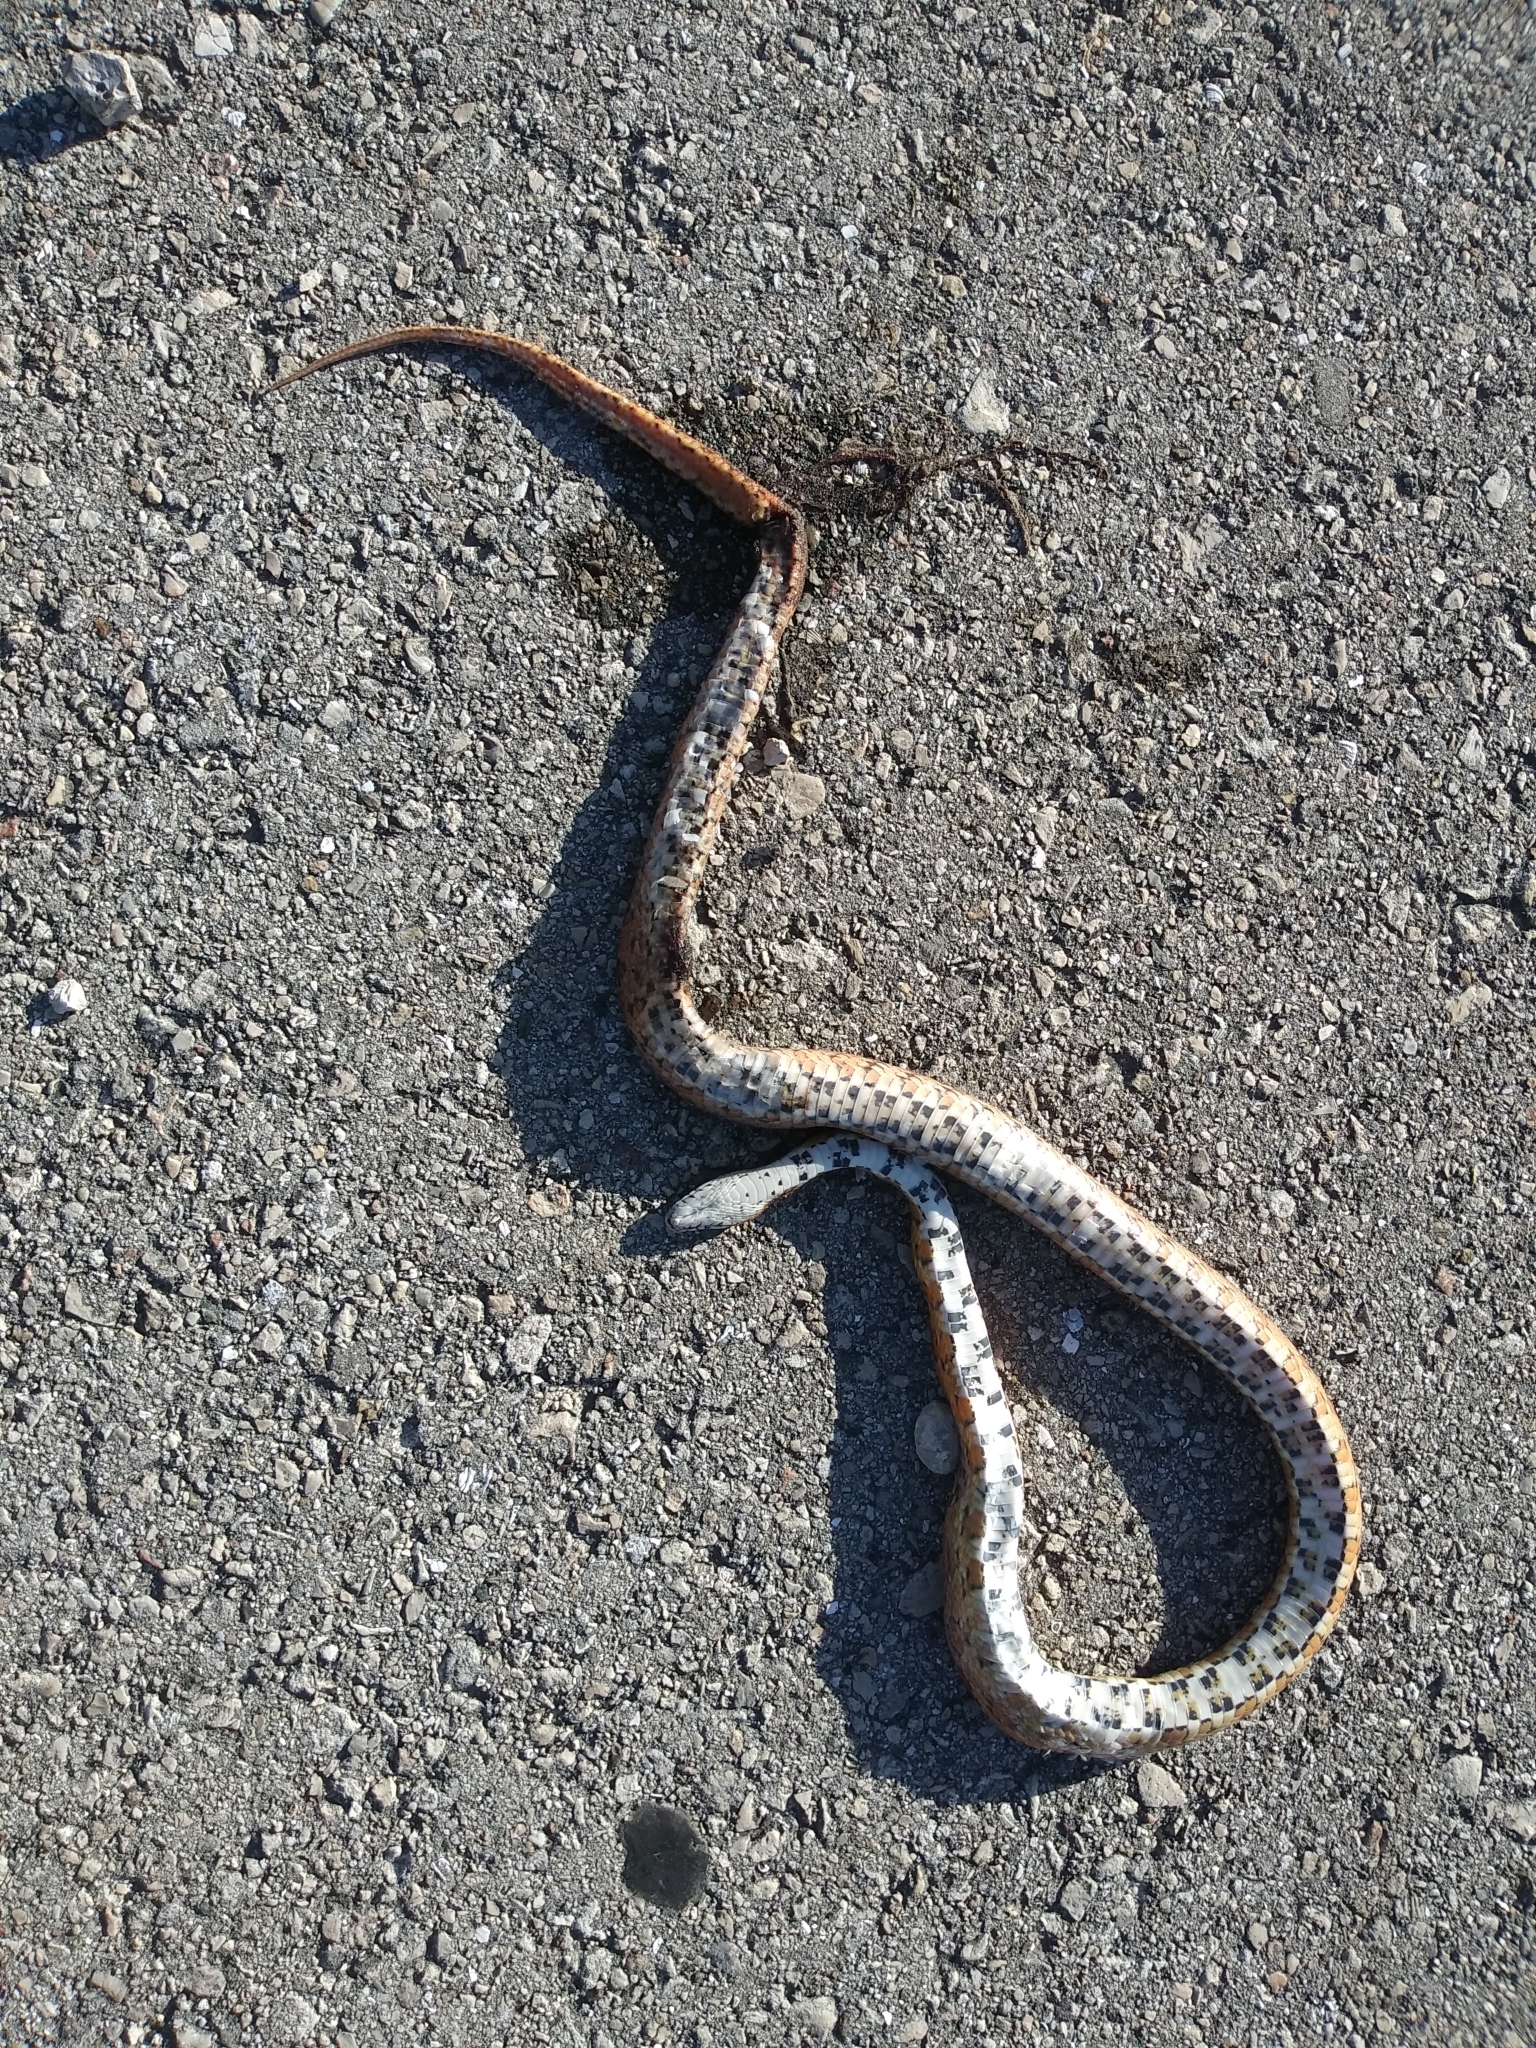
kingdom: Animalia
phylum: Chordata
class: Squamata
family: Colubridae
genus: Pantherophis
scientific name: Pantherophis guttatus
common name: Red cornsnake
